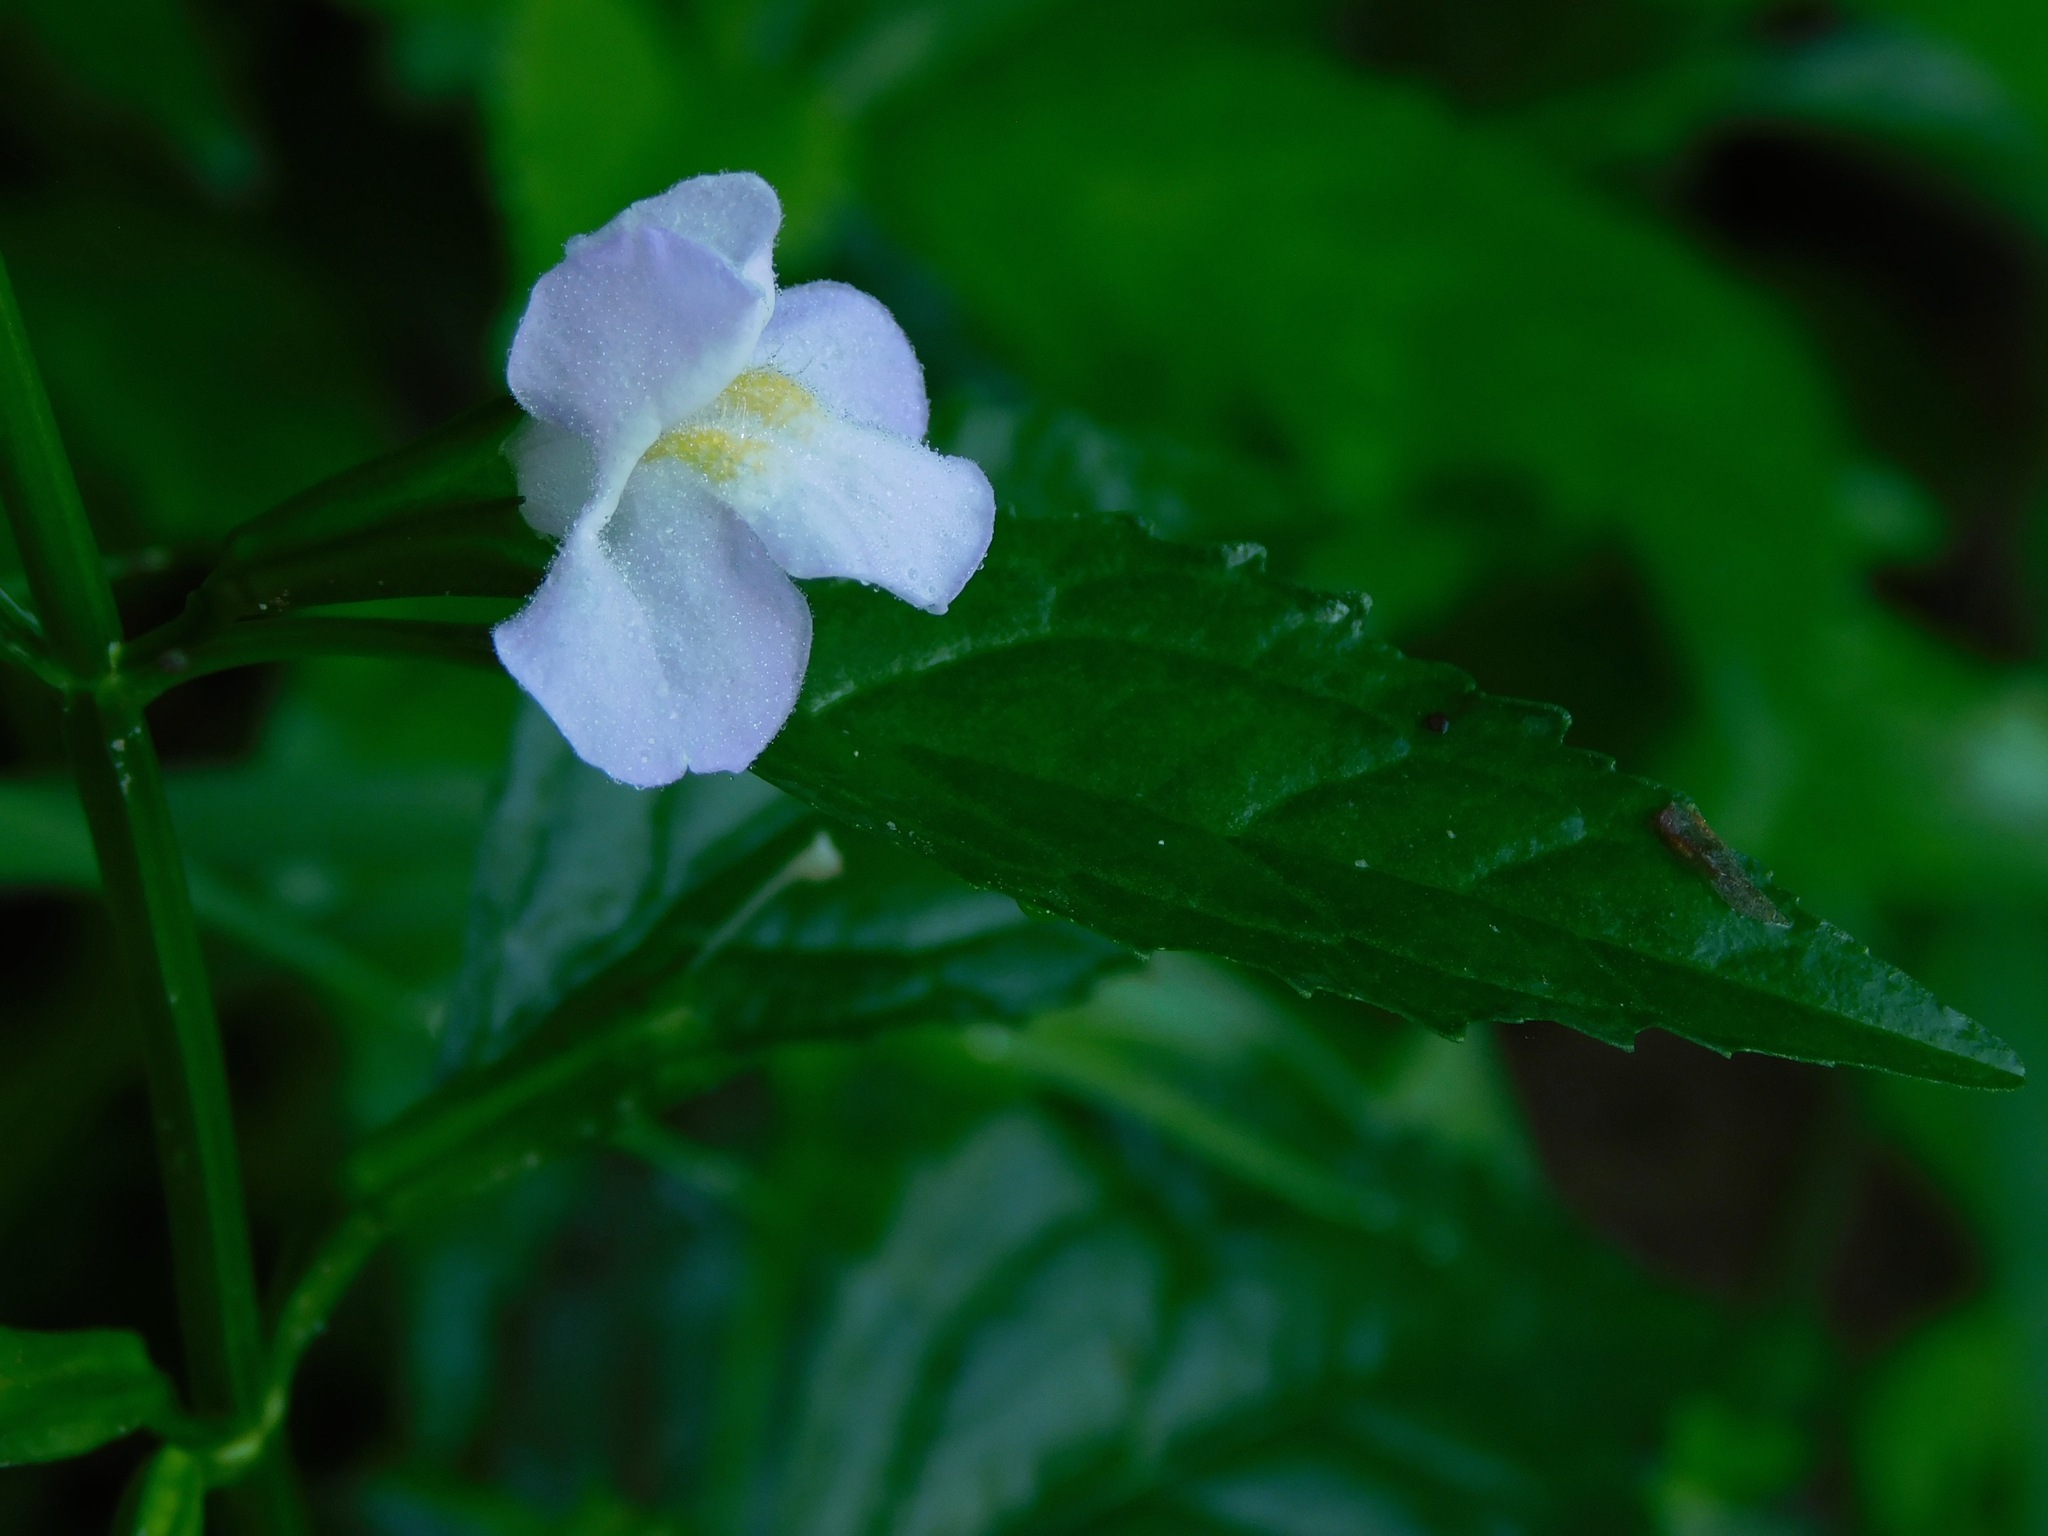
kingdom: Plantae
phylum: Tracheophyta
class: Magnoliopsida
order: Lamiales
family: Phrymaceae
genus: Mimulus
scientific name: Mimulus alatus
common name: Sharp-wing monkey-flower
